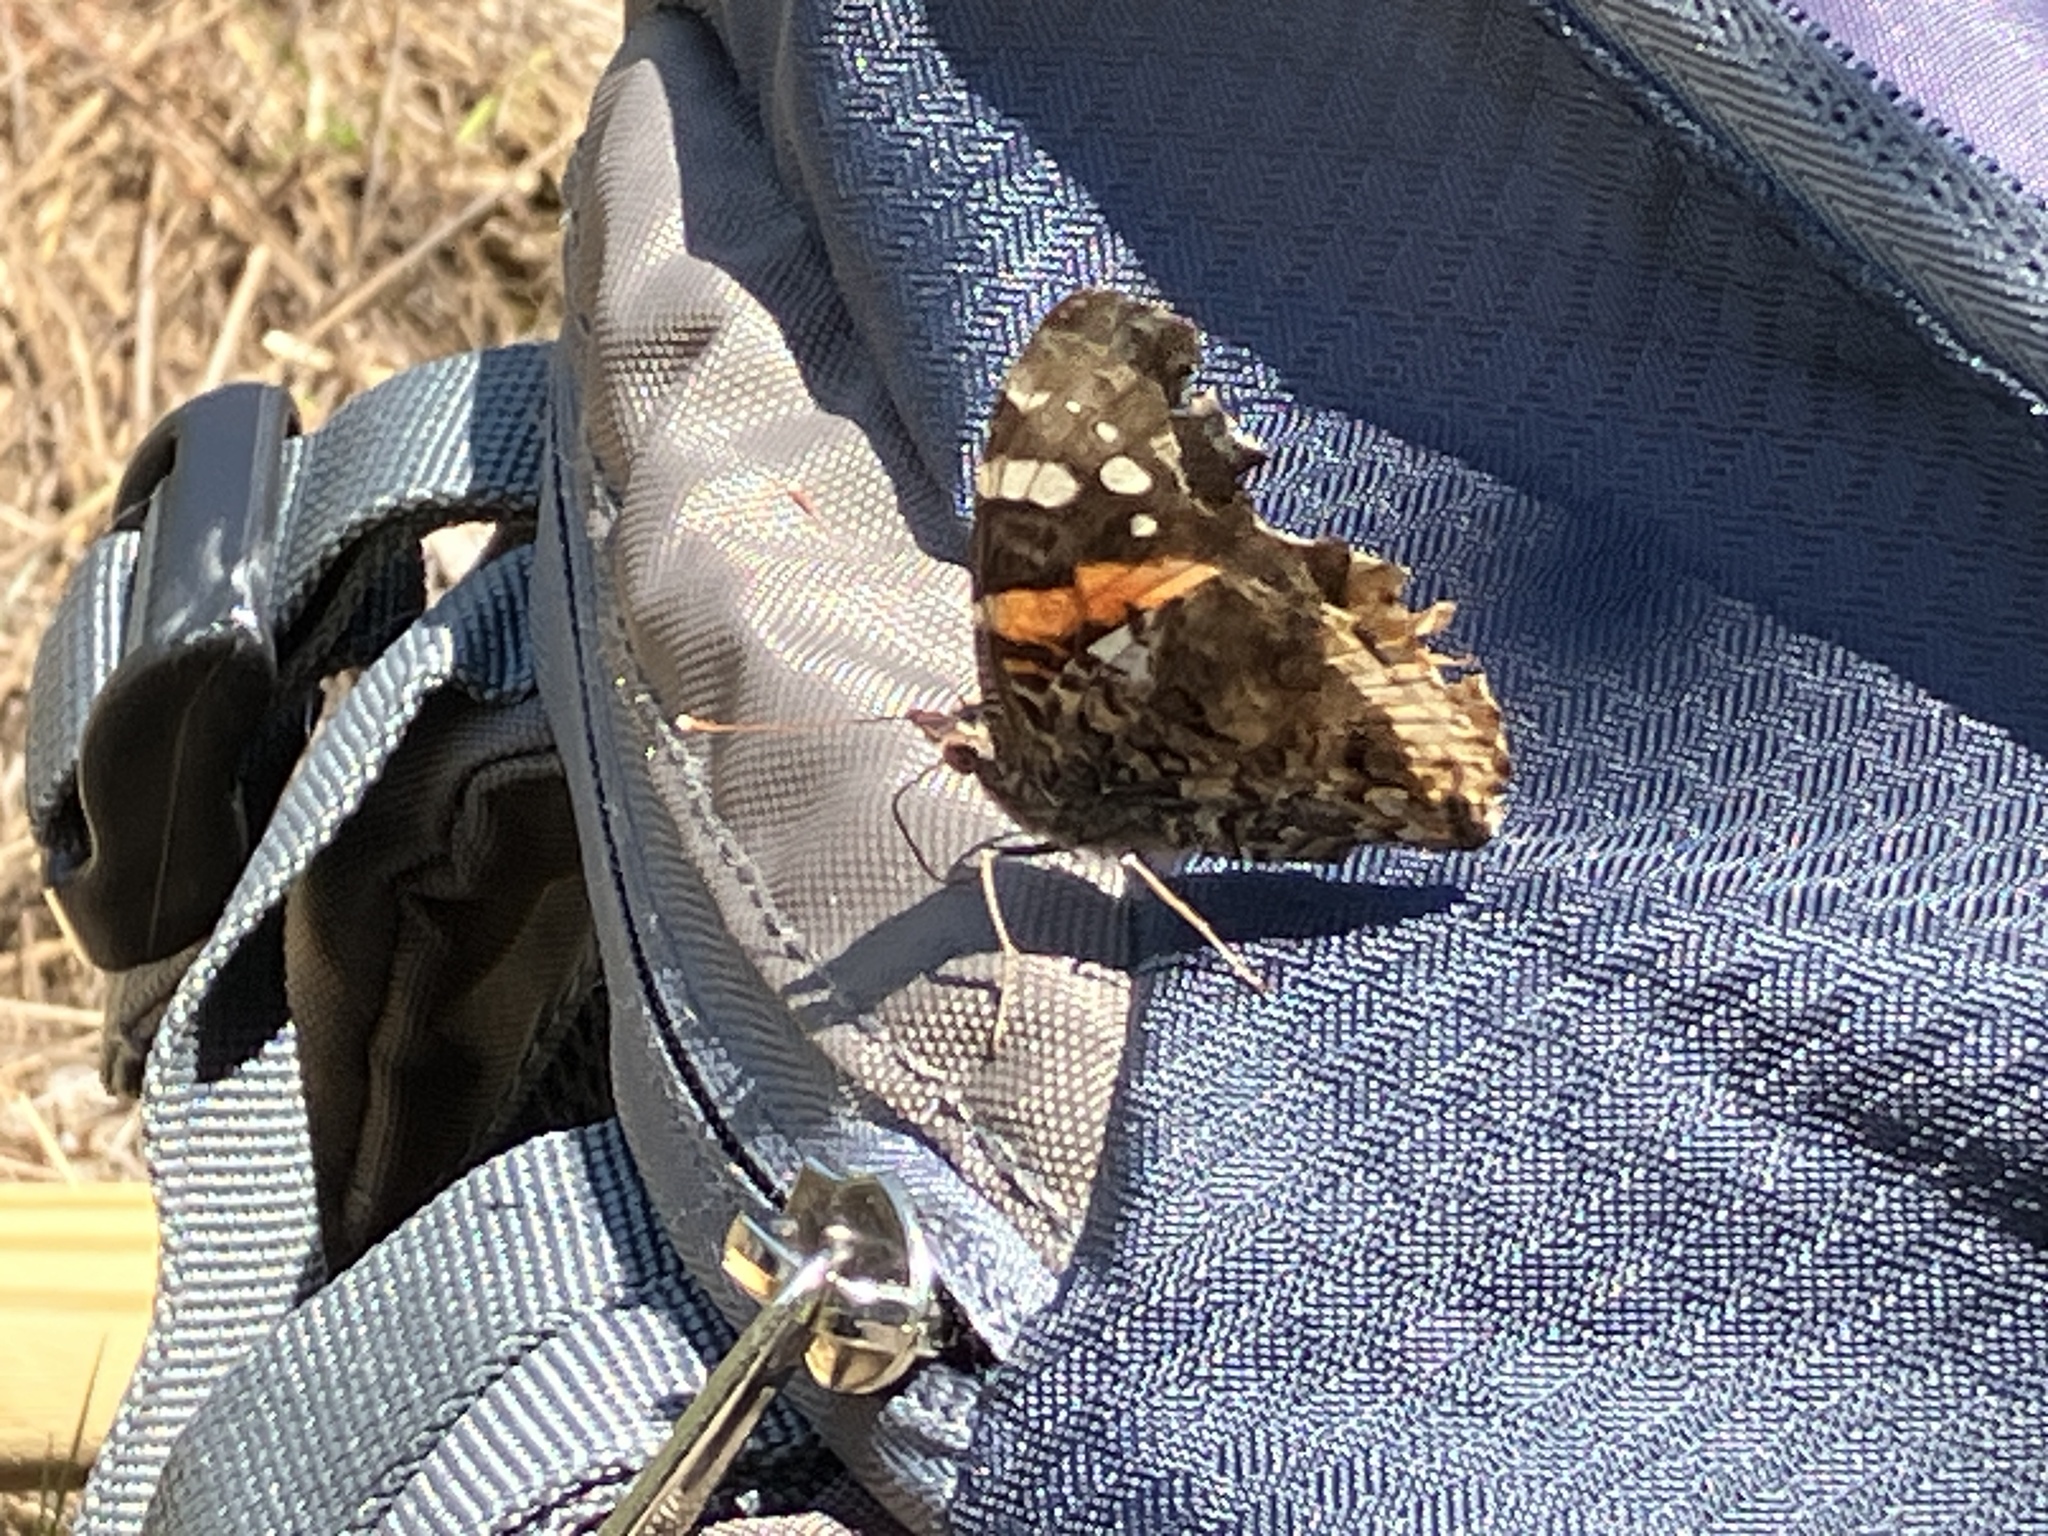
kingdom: Animalia
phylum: Arthropoda
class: Insecta
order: Lepidoptera
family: Nymphalidae
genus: Vanessa
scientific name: Vanessa atalanta
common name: Red admiral
